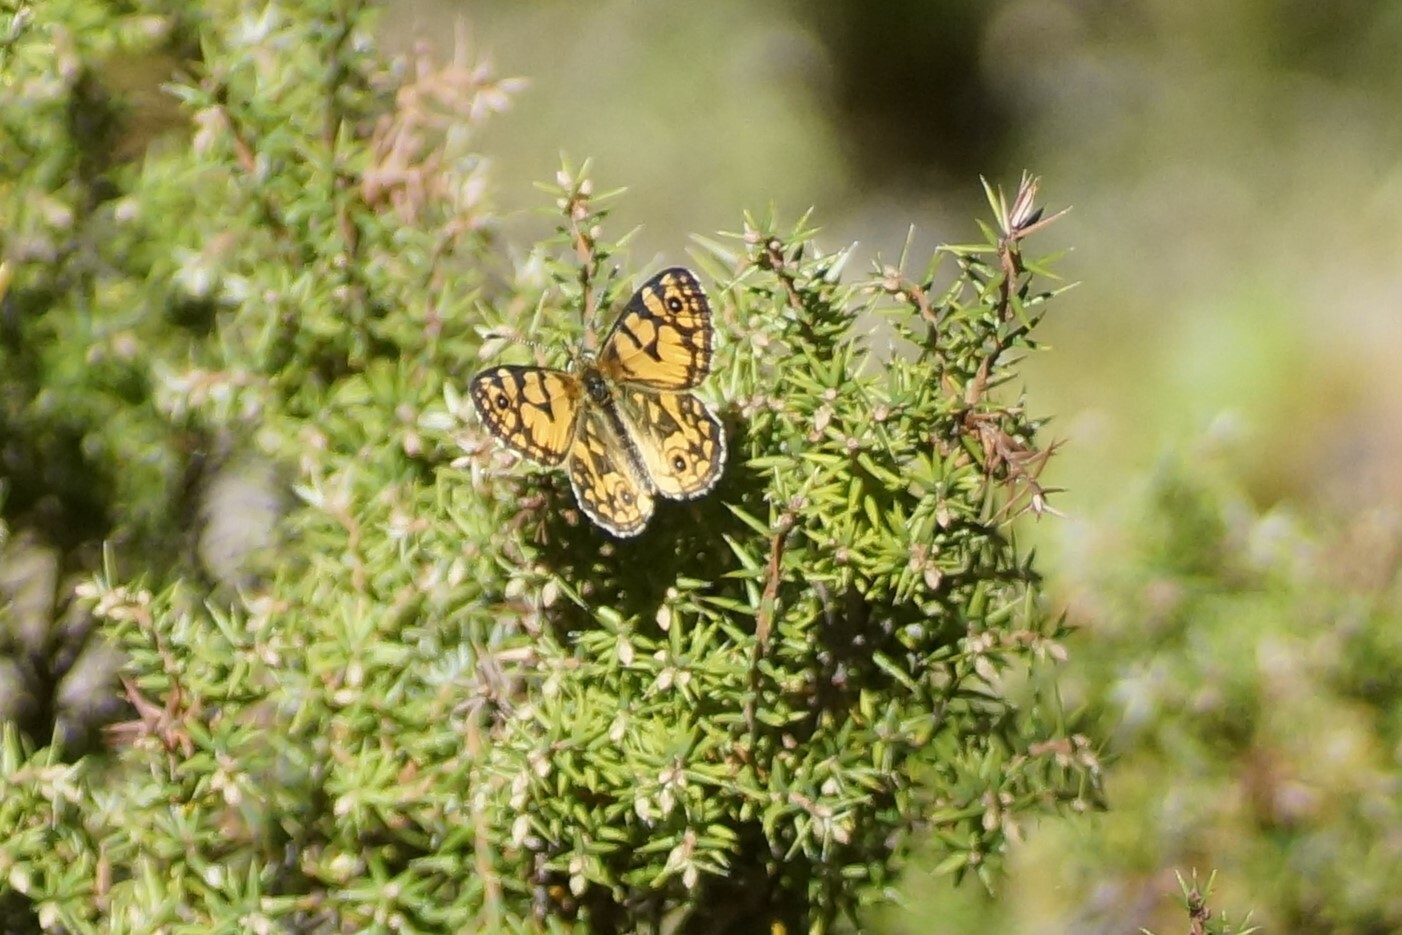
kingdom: Animalia
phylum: Arthropoda
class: Insecta
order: Lepidoptera
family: Nymphalidae
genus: Oreixenica
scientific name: Oreixenica lathoniella
